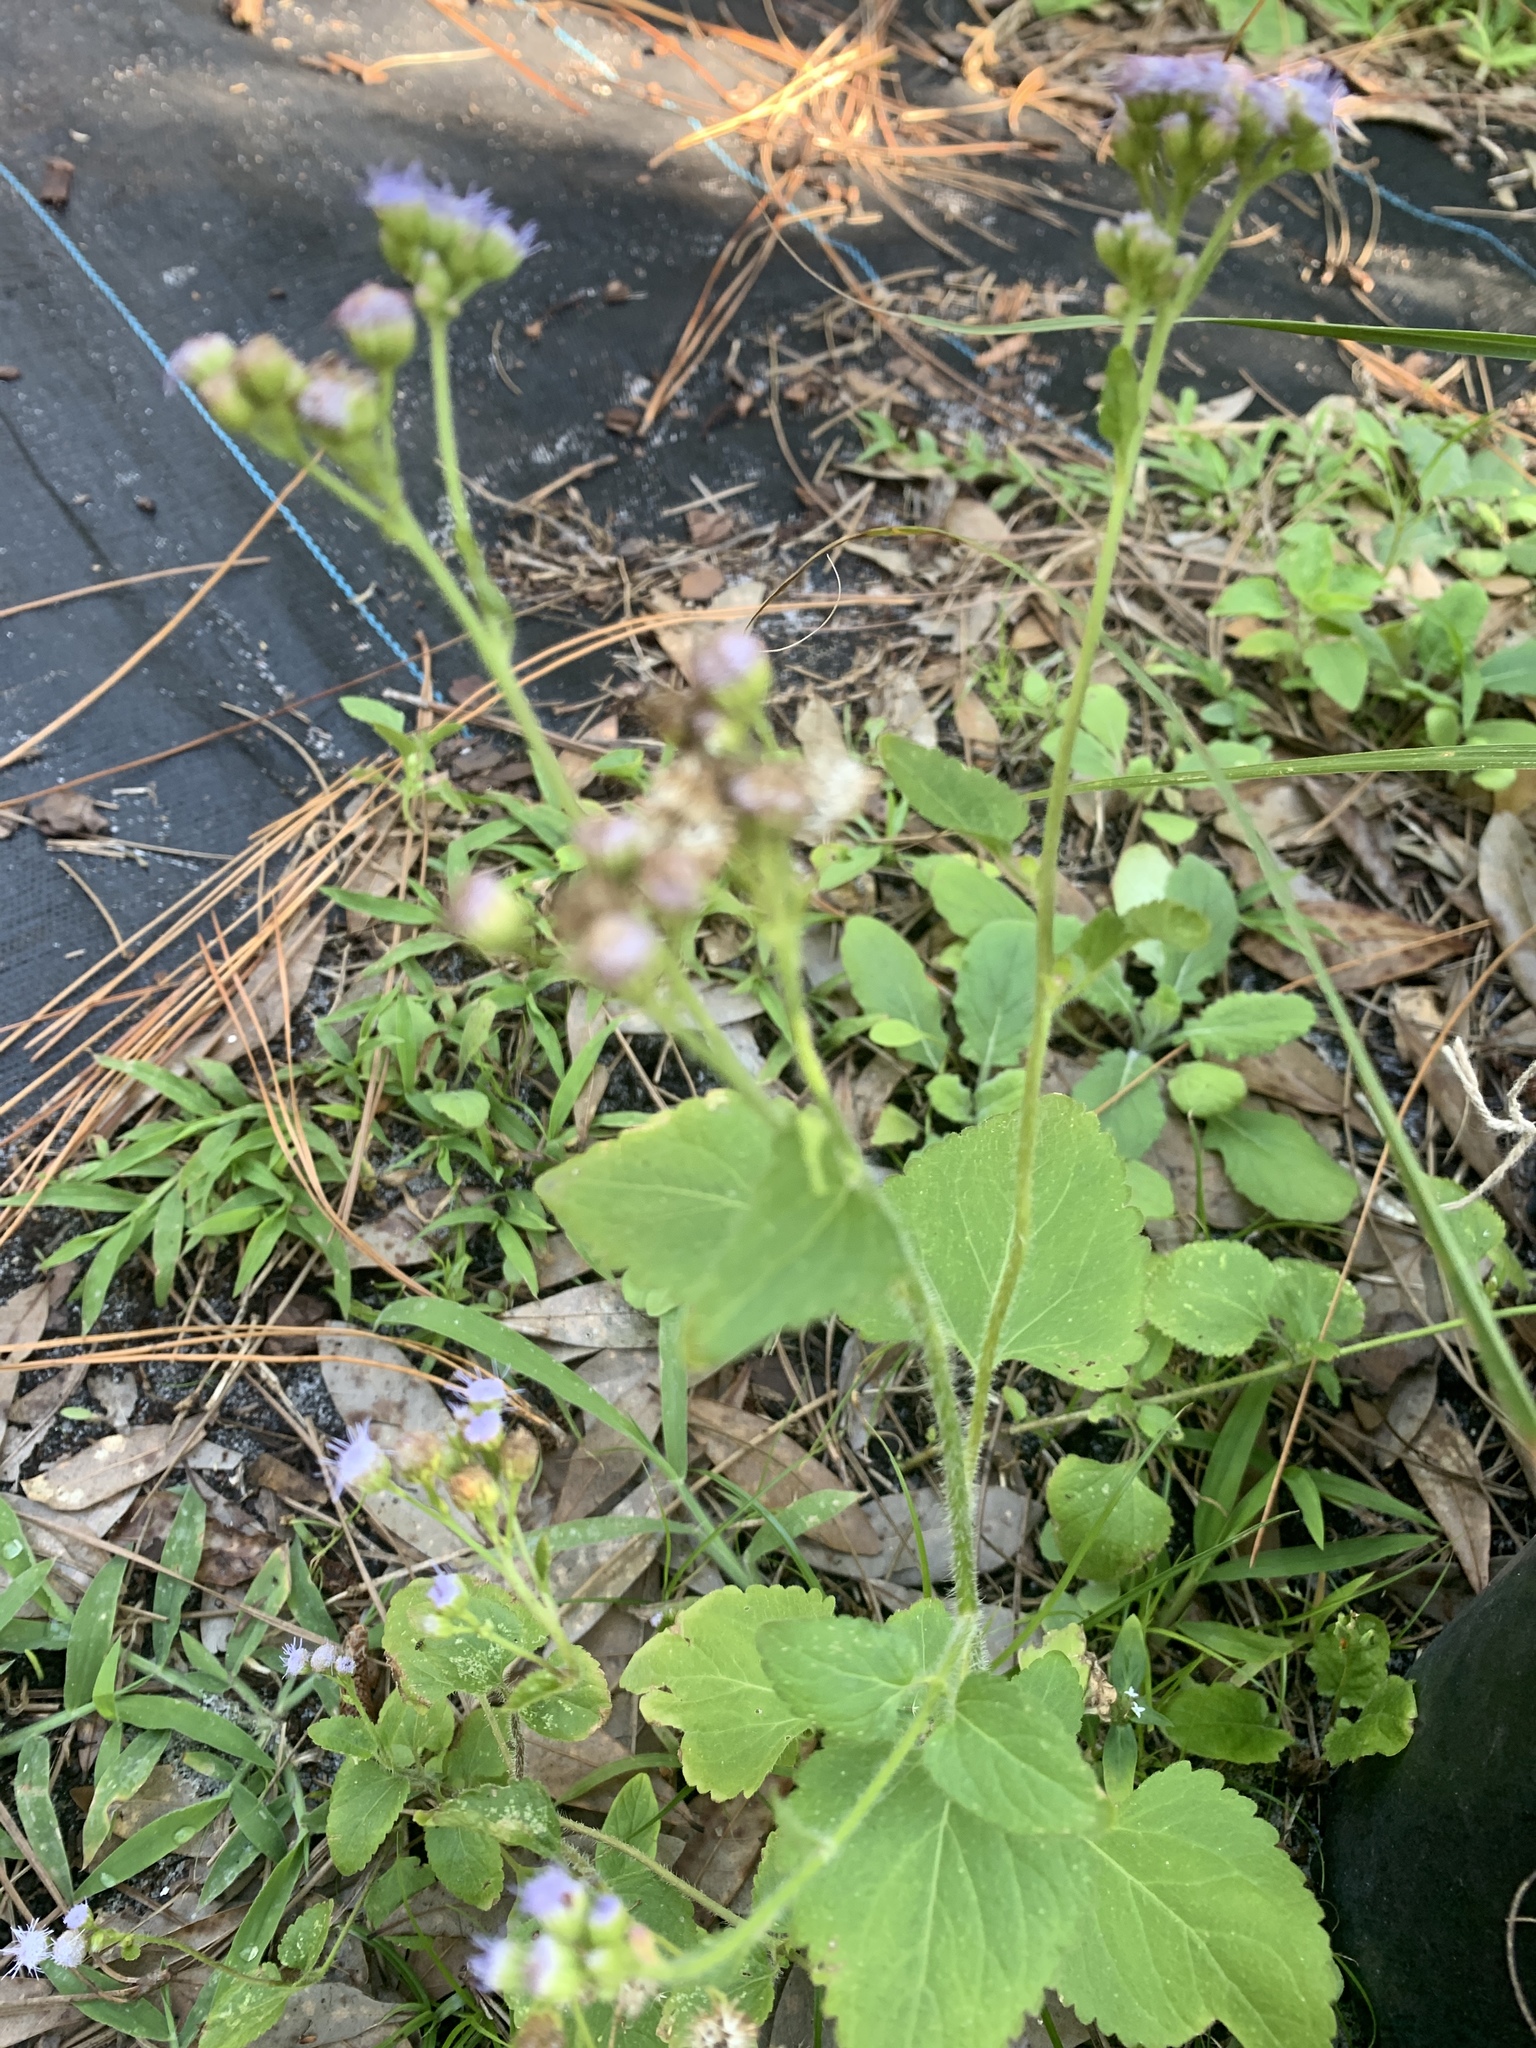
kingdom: Plantae
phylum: Tracheophyta
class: Magnoliopsida
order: Asterales
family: Asteraceae
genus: Conoclinium
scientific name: Conoclinium coelestinum
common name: Blue mistflower
